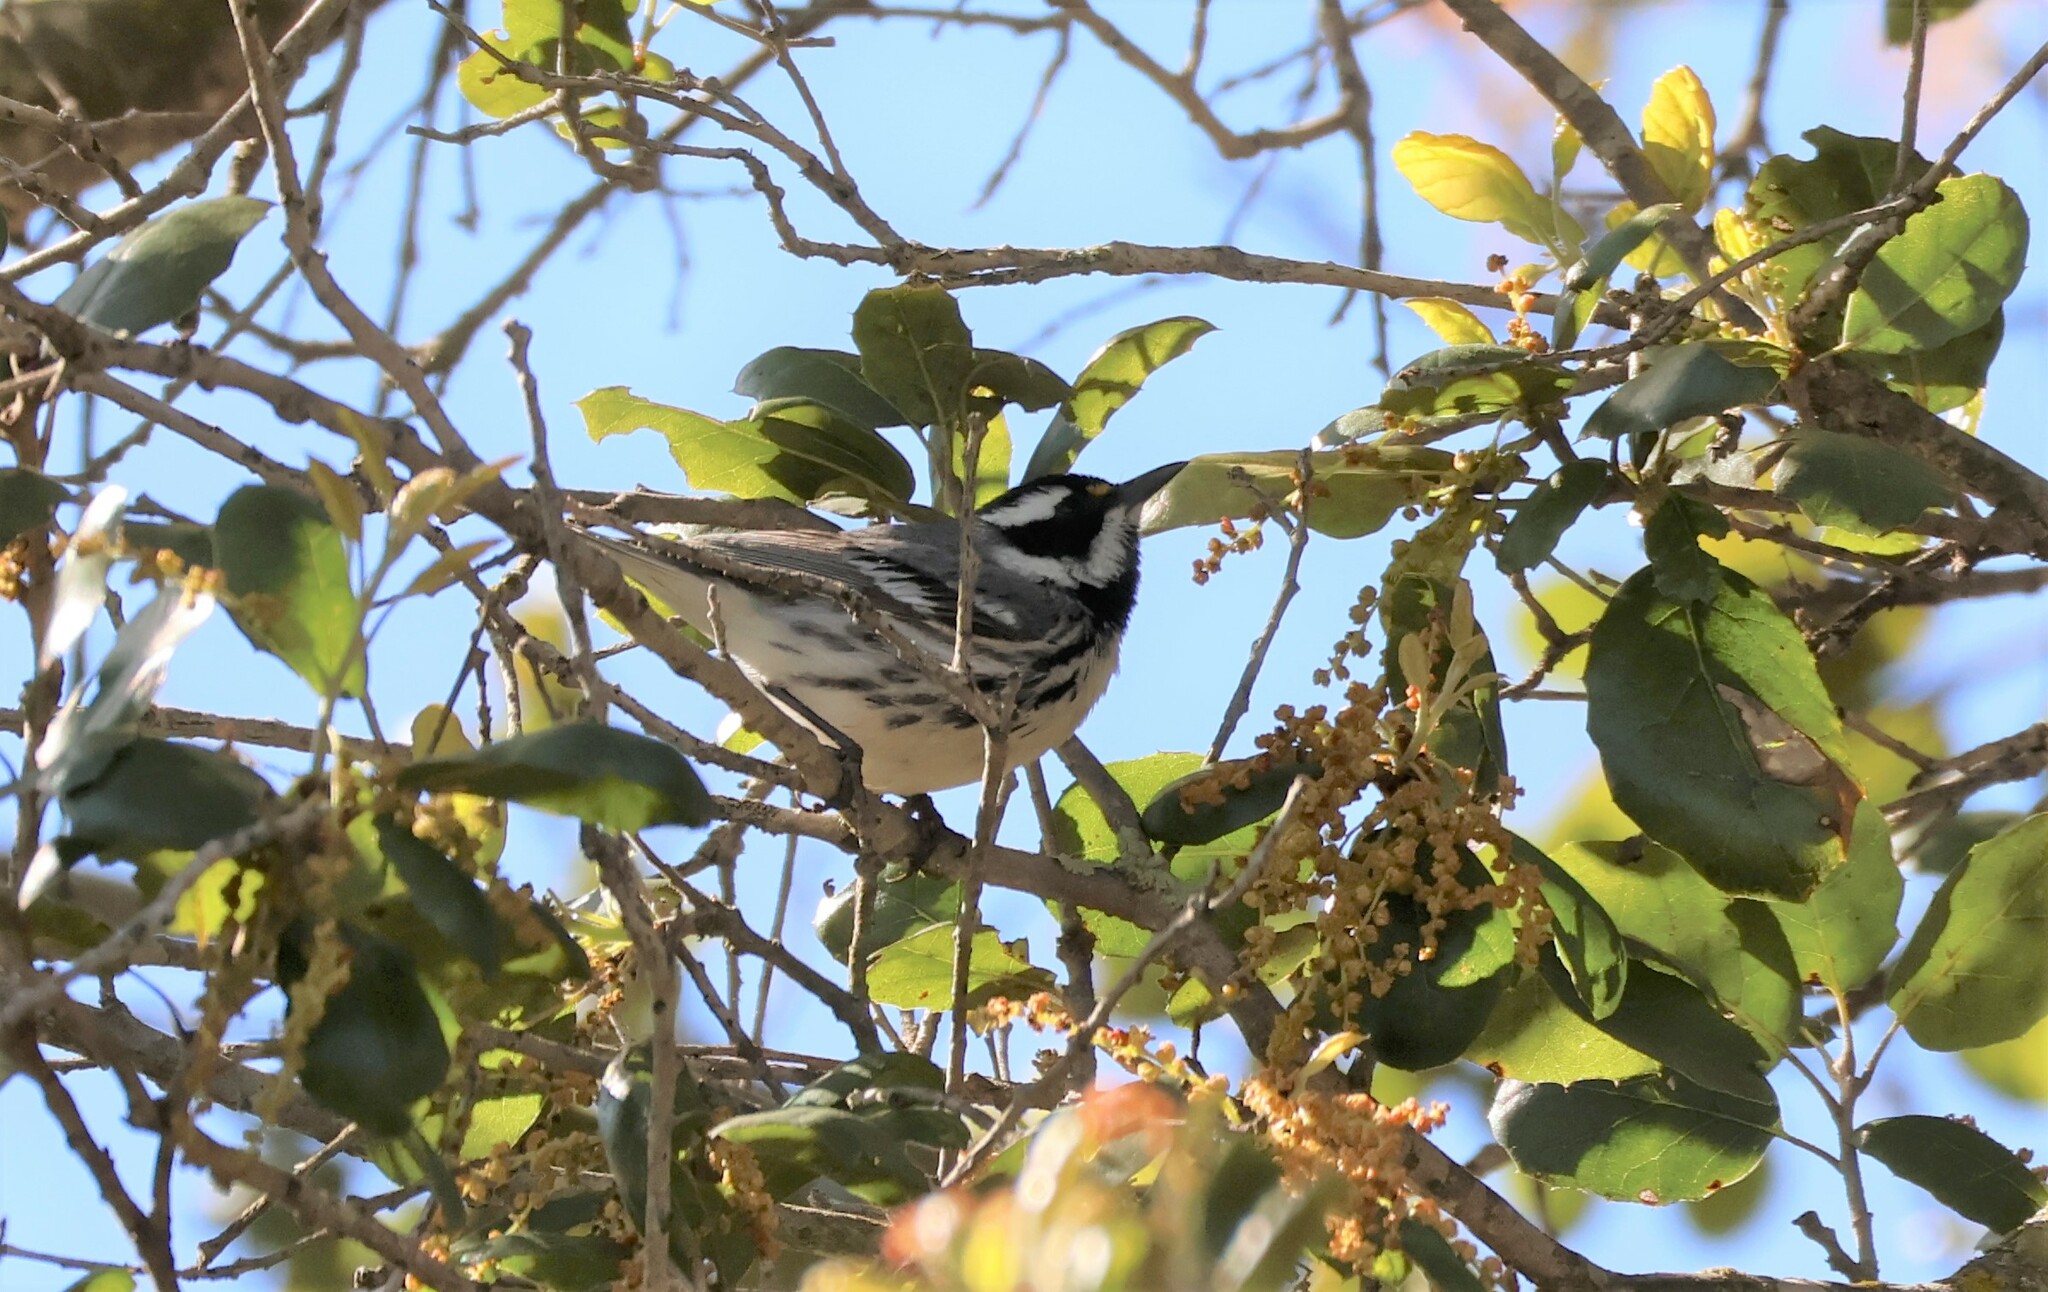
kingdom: Animalia
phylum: Chordata
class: Aves
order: Passeriformes
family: Parulidae
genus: Setophaga
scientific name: Setophaga nigrescens
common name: Black-throated gray warbler
